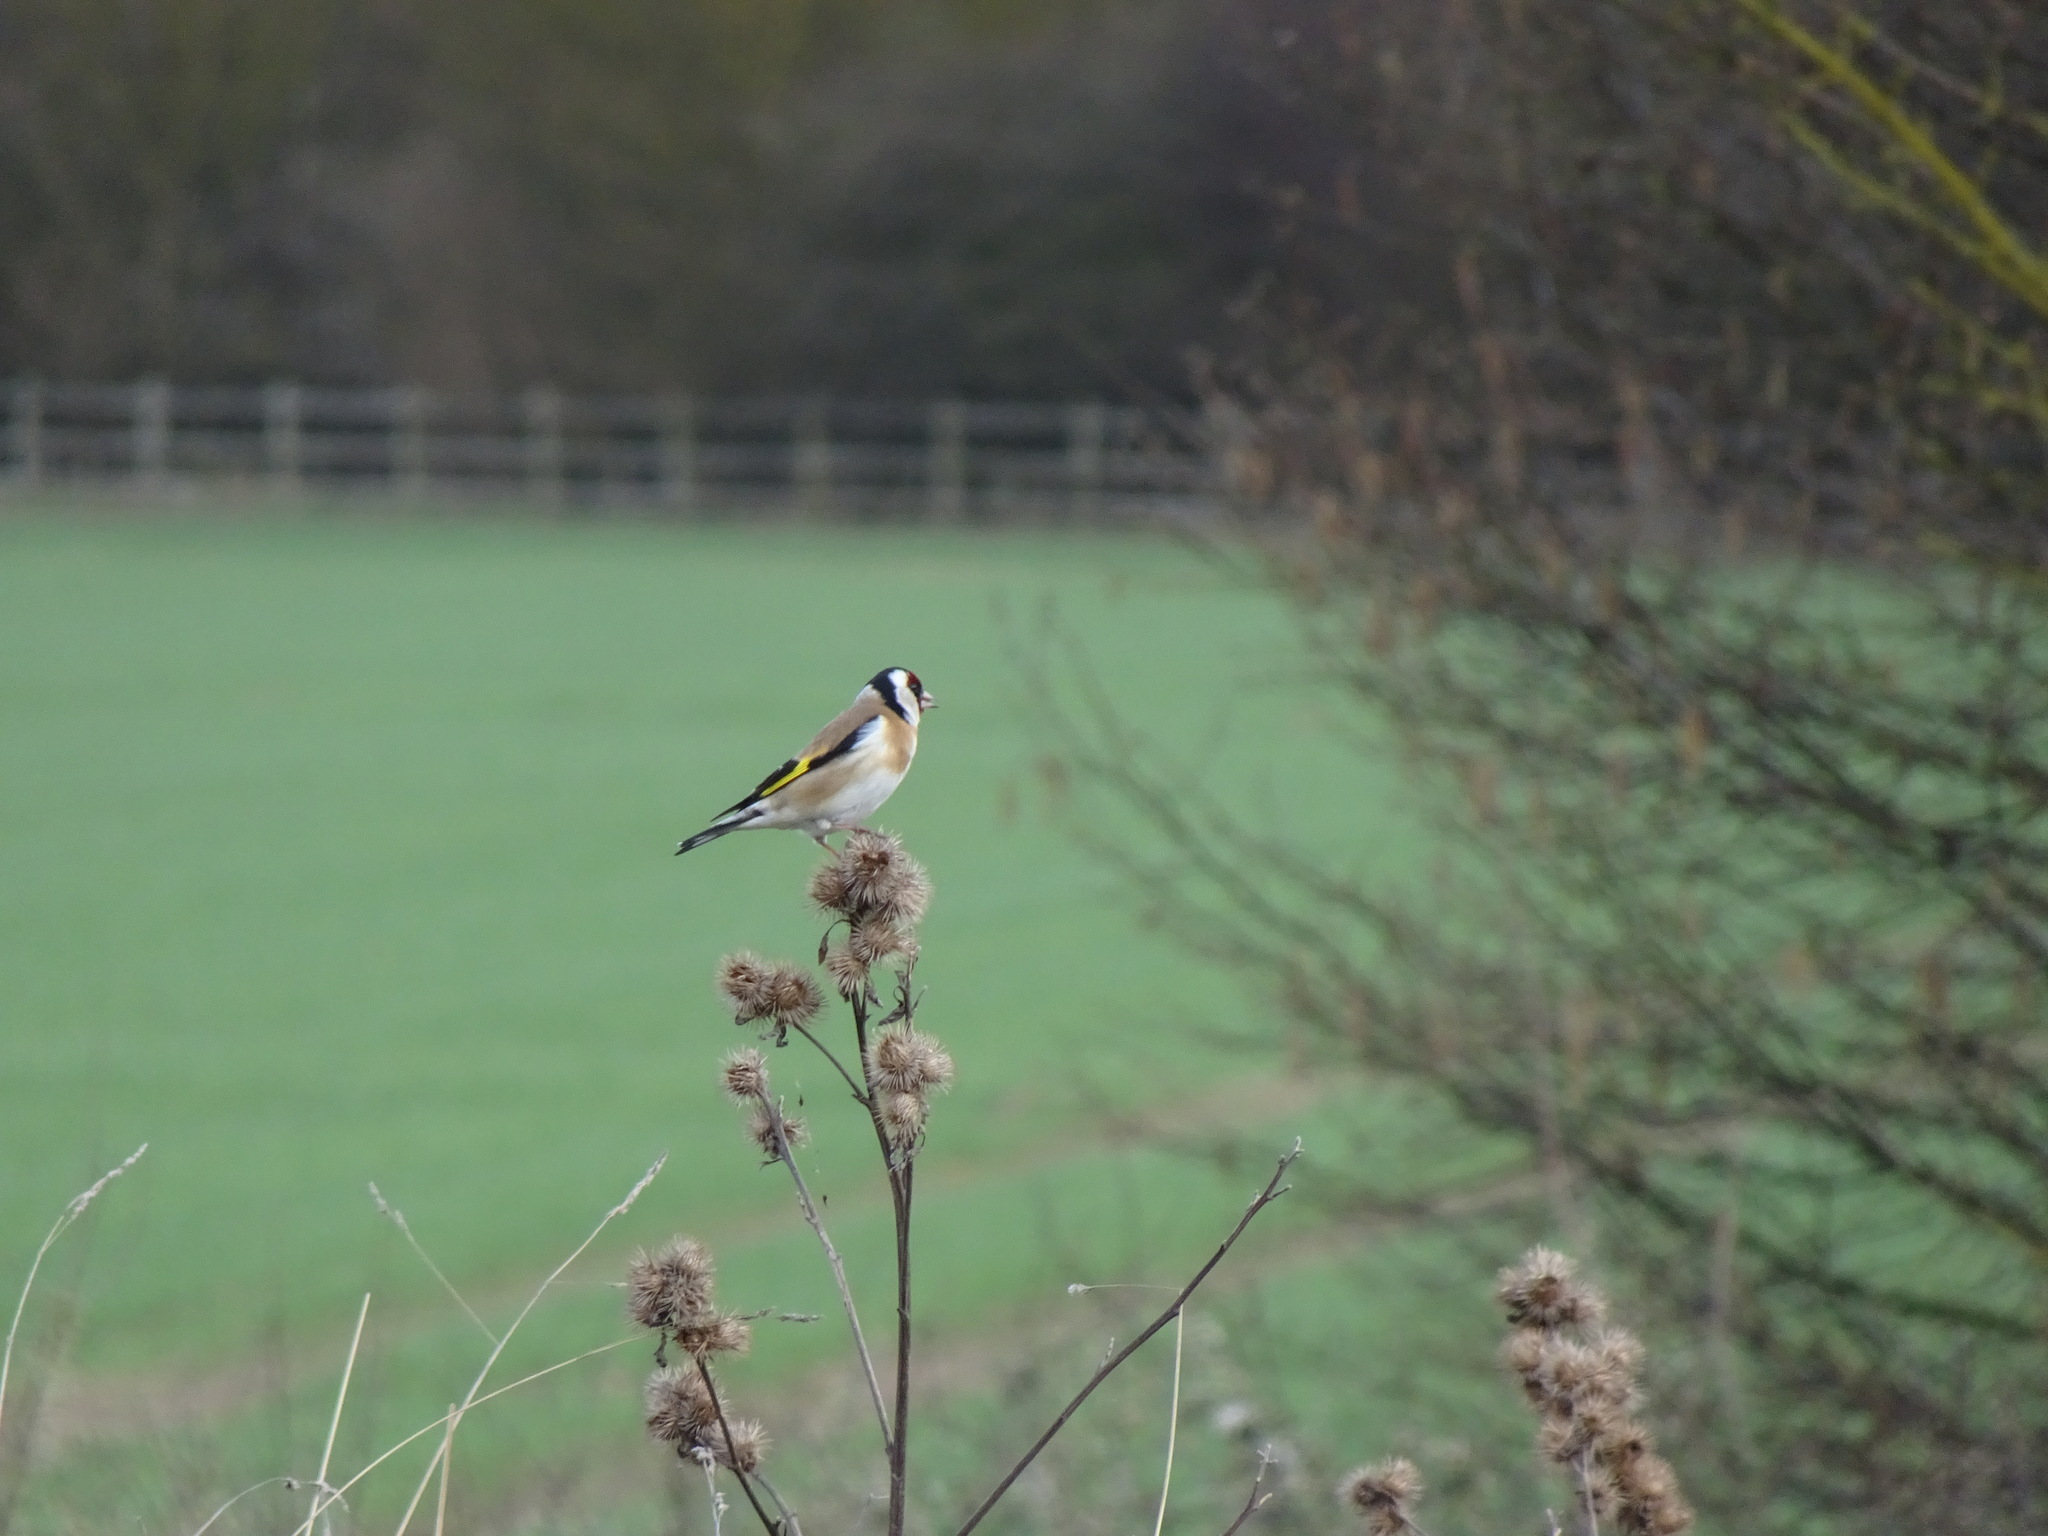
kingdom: Animalia
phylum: Chordata
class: Aves
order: Passeriformes
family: Fringillidae
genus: Carduelis
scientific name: Carduelis carduelis
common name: European goldfinch
